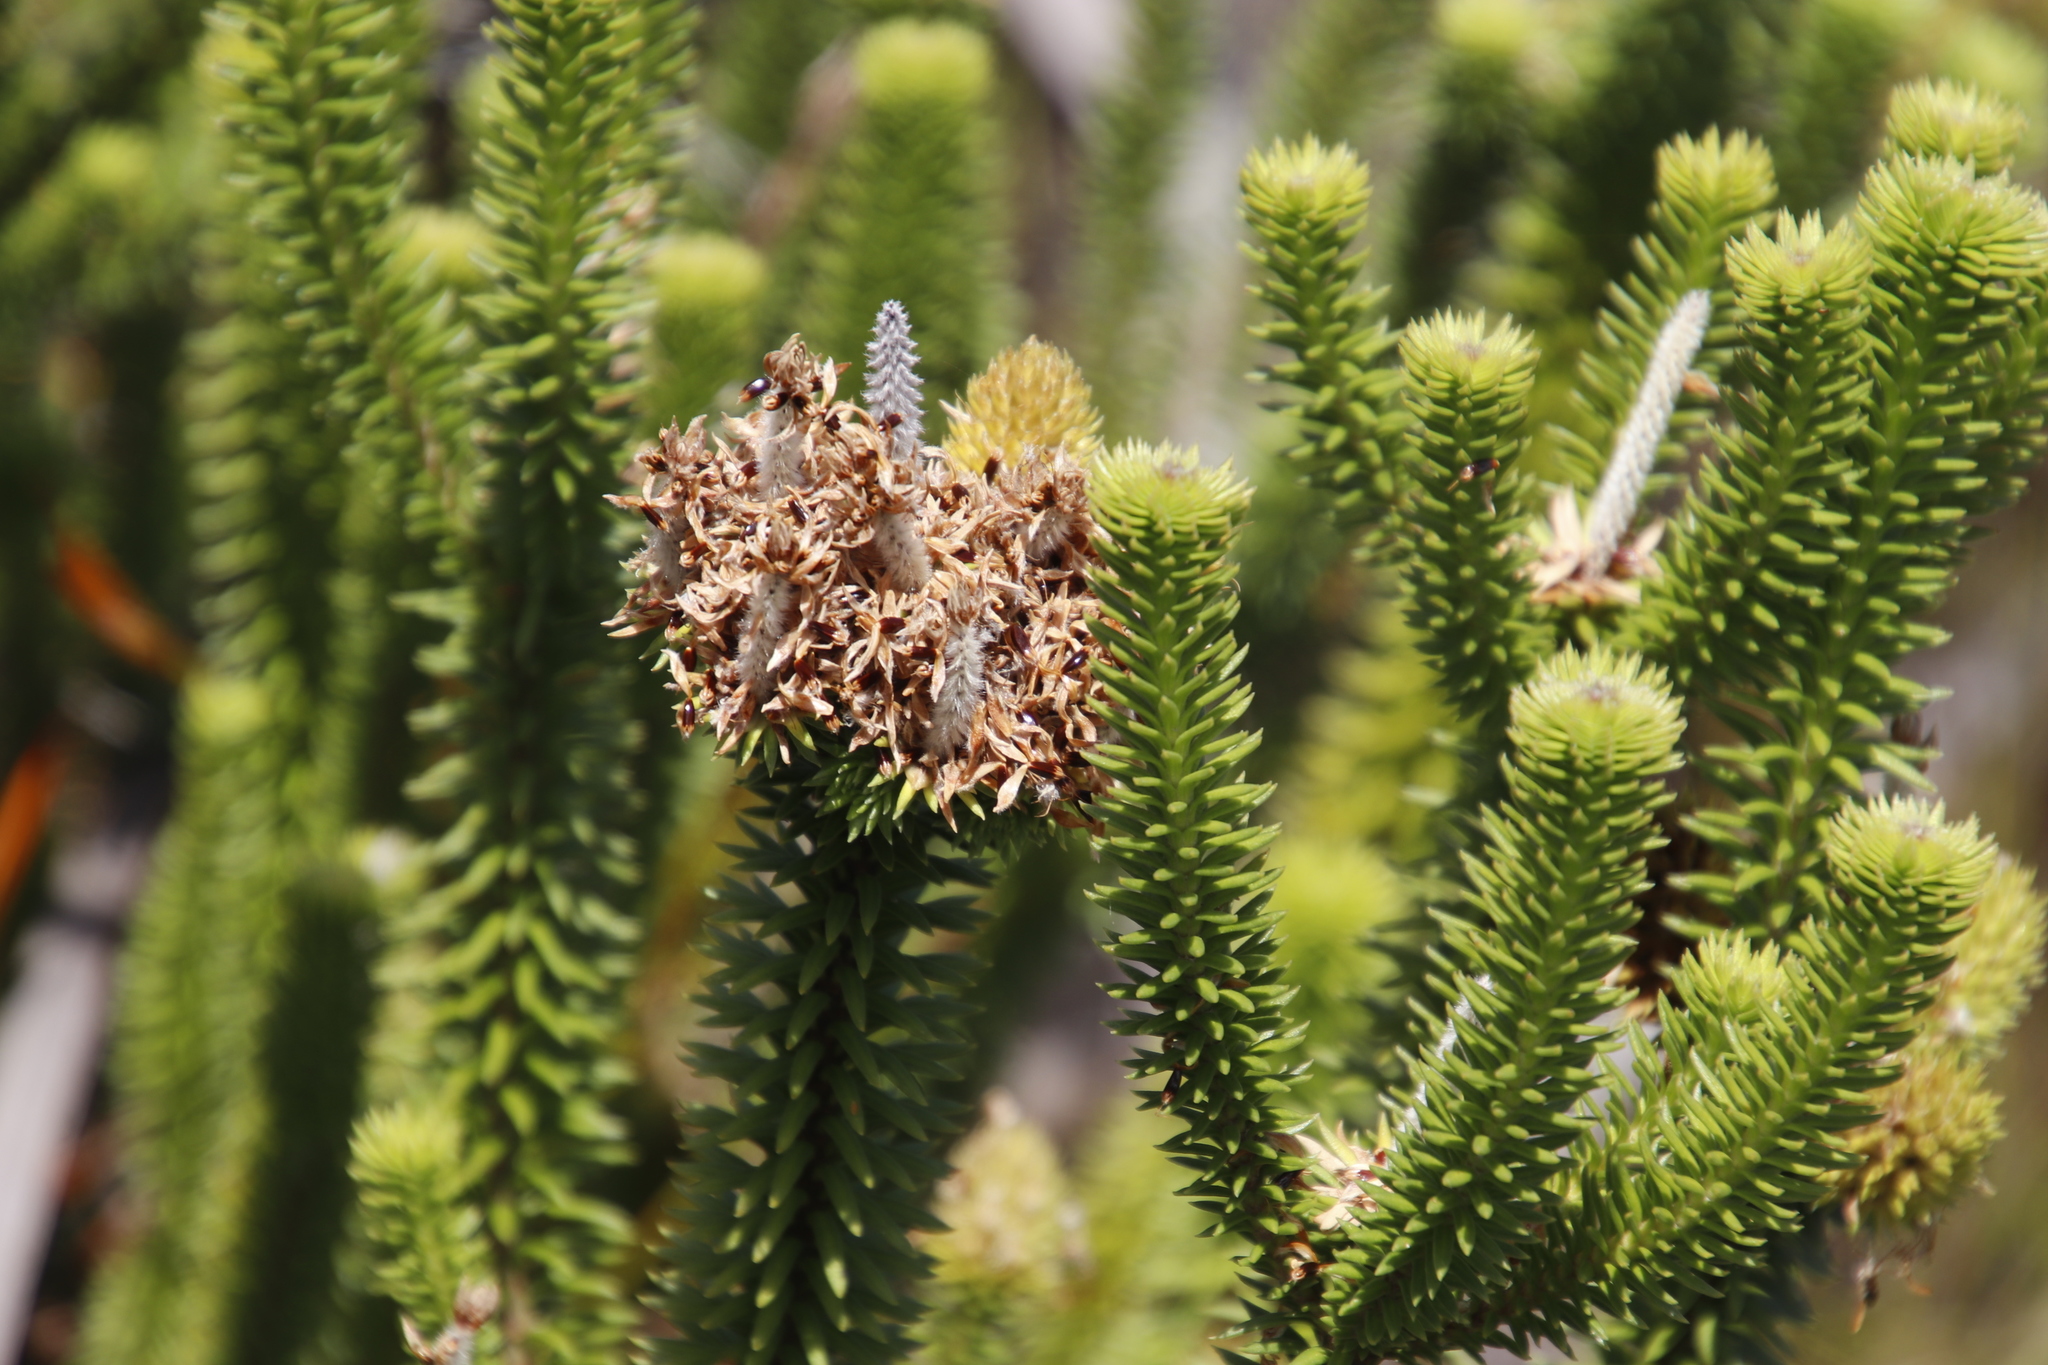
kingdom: Plantae
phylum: Tracheophyta
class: Magnoliopsida
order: Lamiales
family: Stilbaceae
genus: Stilbe
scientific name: Stilbe vestita
